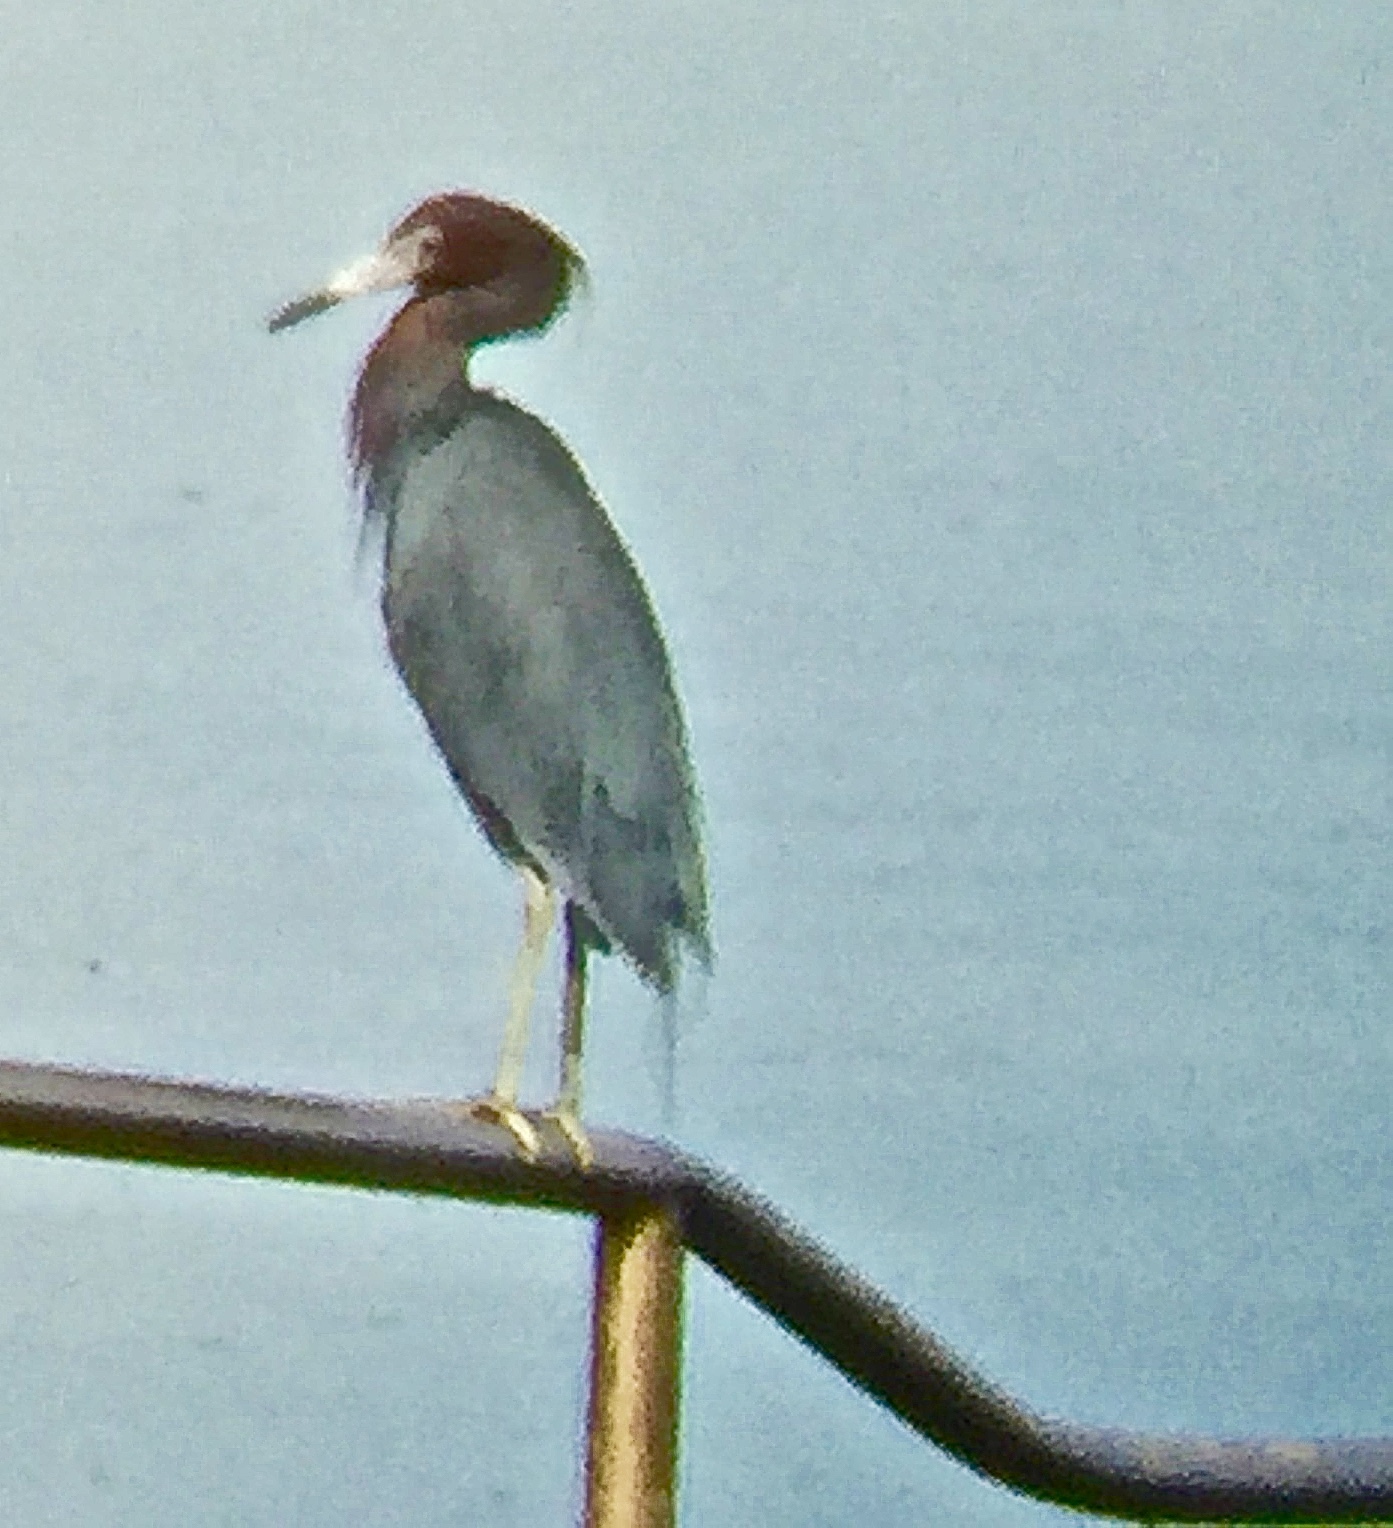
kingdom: Animalia
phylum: Chordata
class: Aves
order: Pelecaniformes
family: Ardeidae
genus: Egretta
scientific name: Egretta caerulea
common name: Little blue heron
